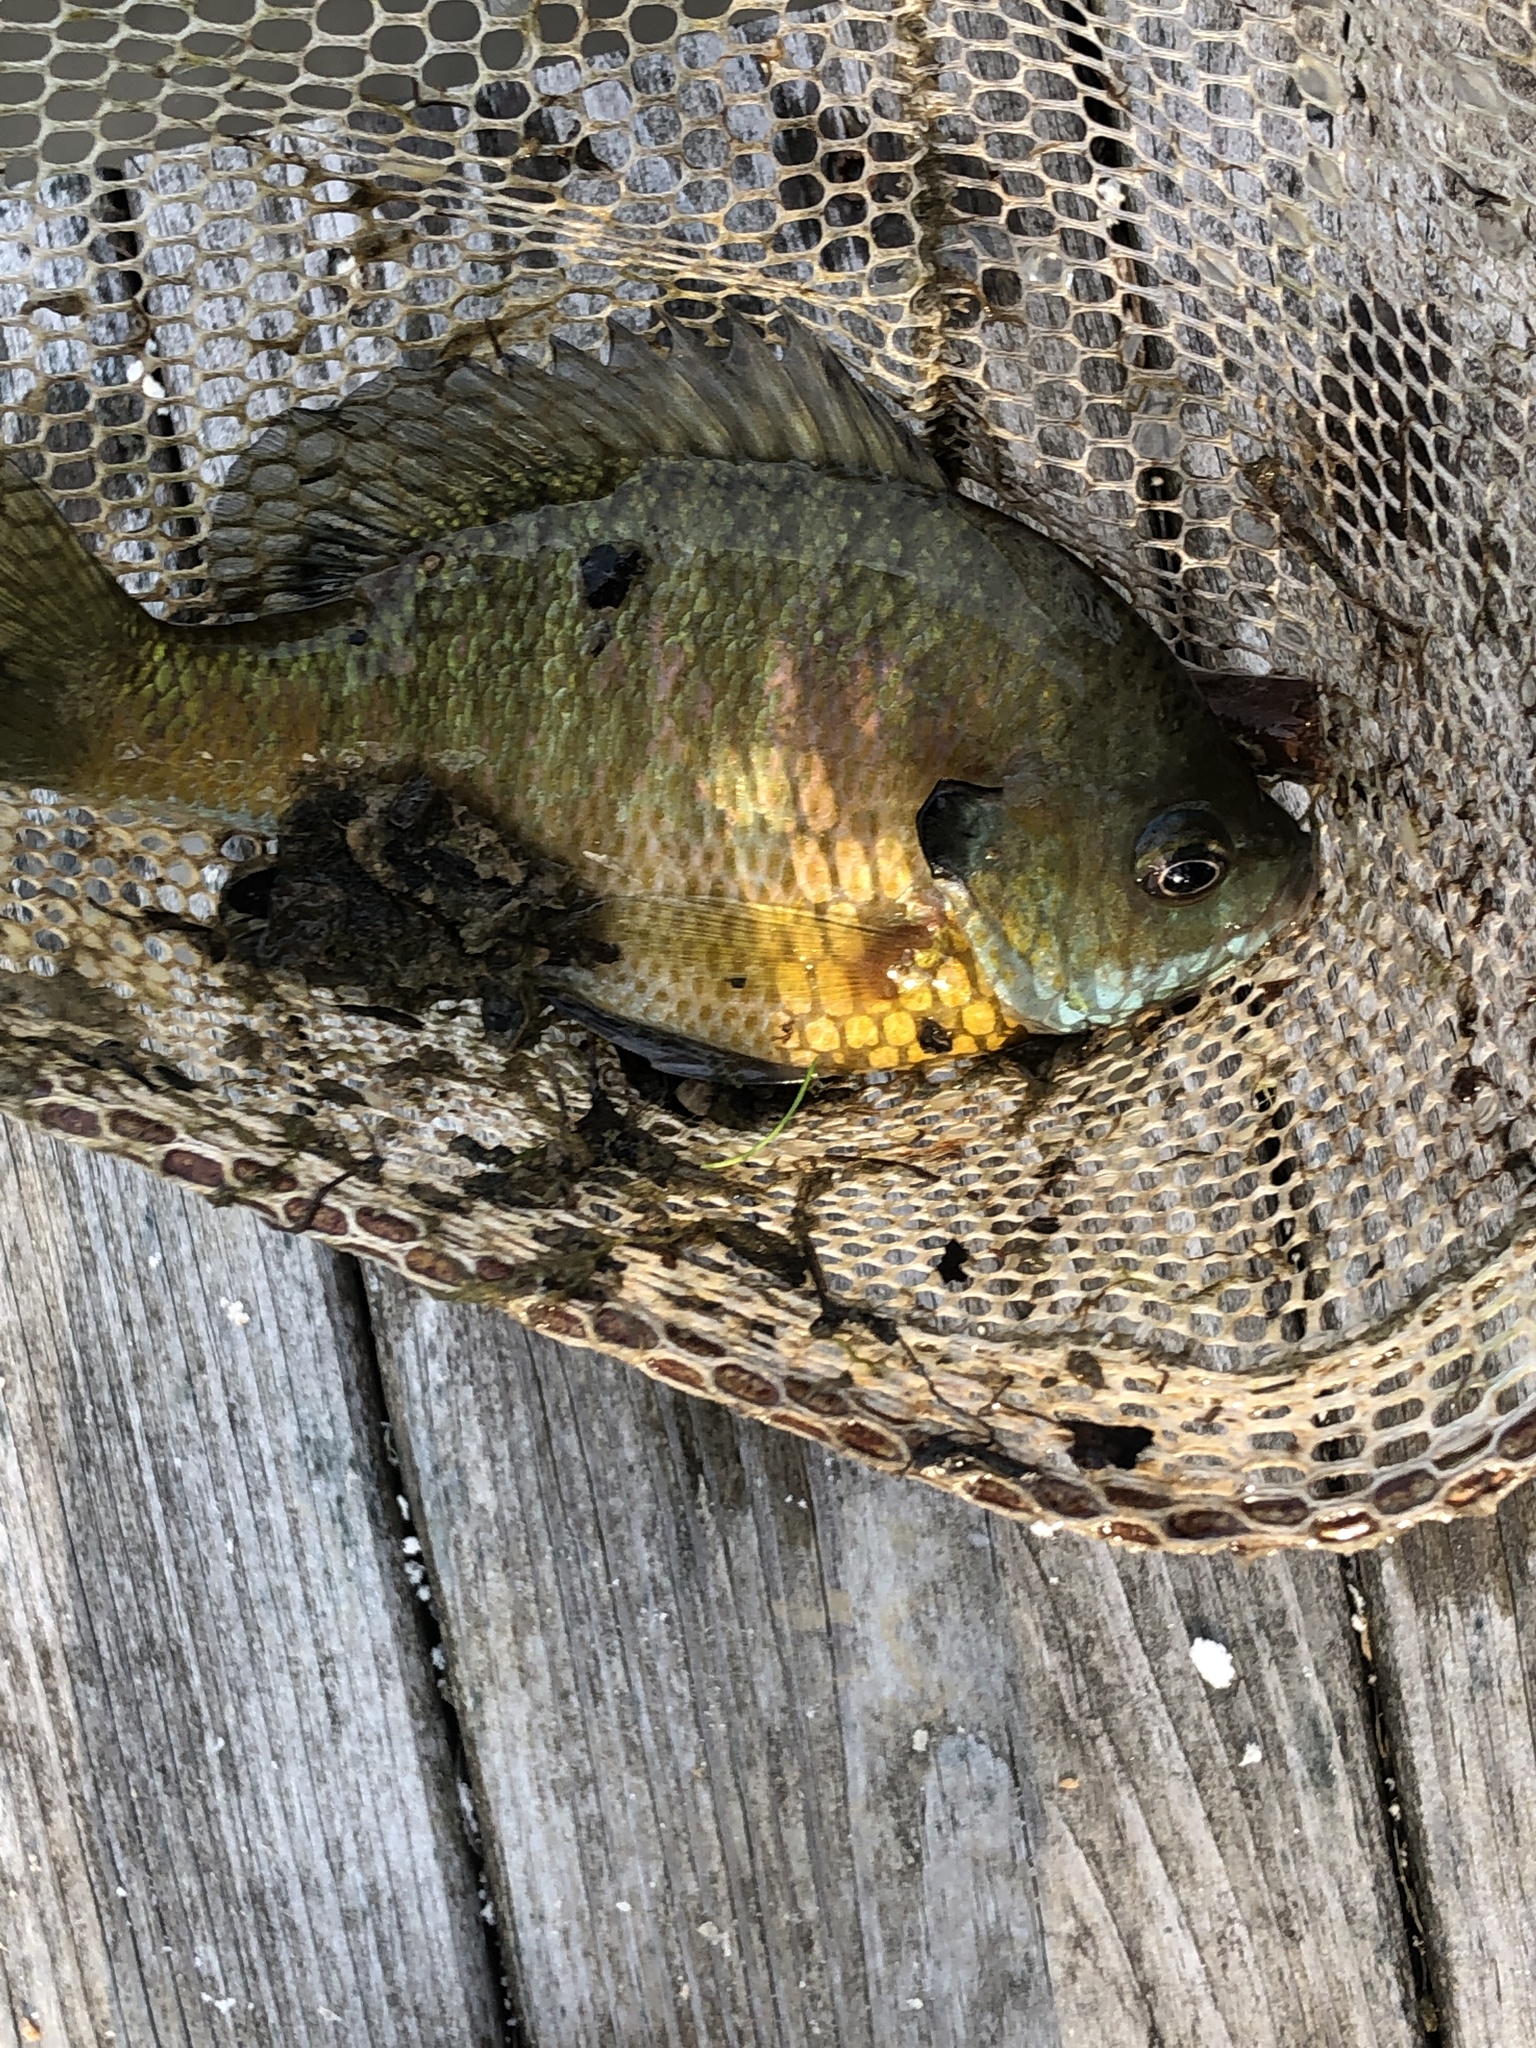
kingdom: Animalia
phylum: Chordata
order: Perciformes
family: Centrarchidae
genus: Lepomis
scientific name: Lepomis macrochirus
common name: Bluegill
